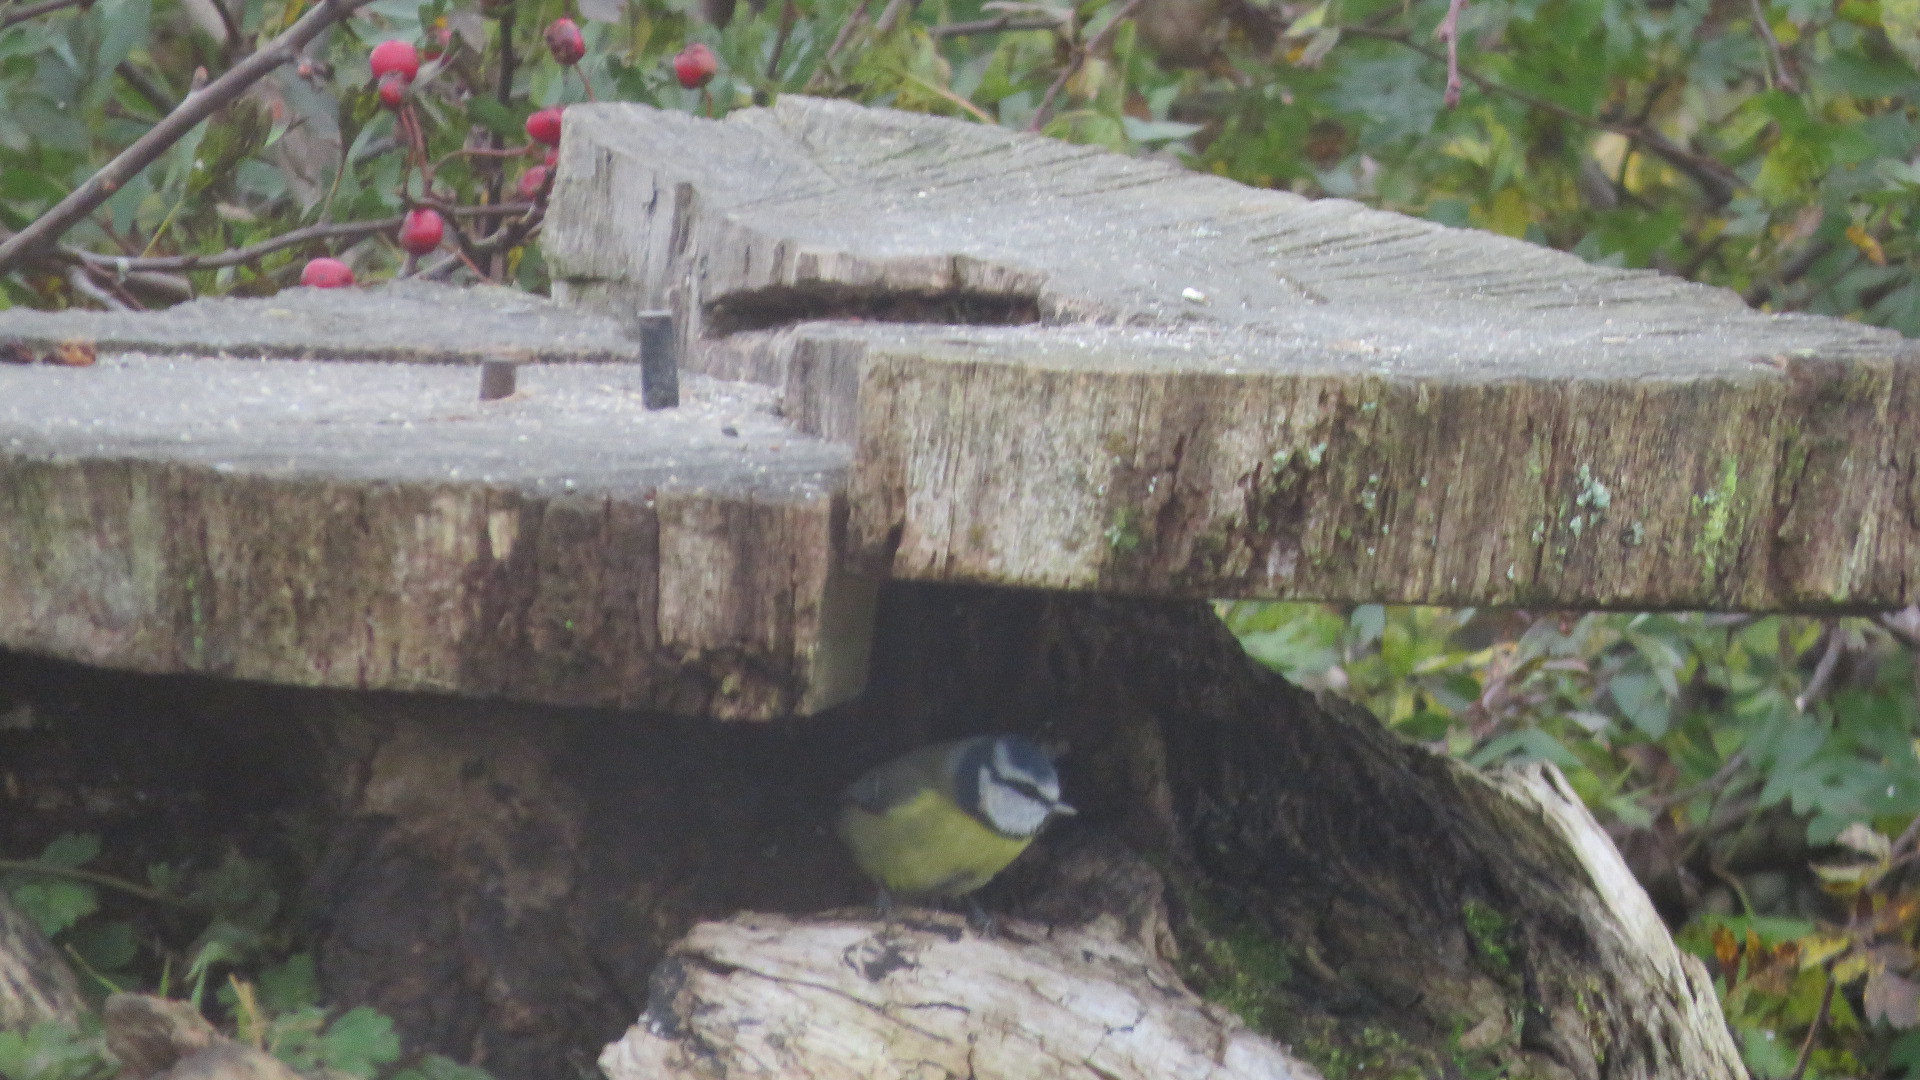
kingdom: Animalia
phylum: Chordata
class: Aves
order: Passeriformes
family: Paridae
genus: Cyanistes
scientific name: Cyanistes caeruleus
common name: Eurasian blue tit
